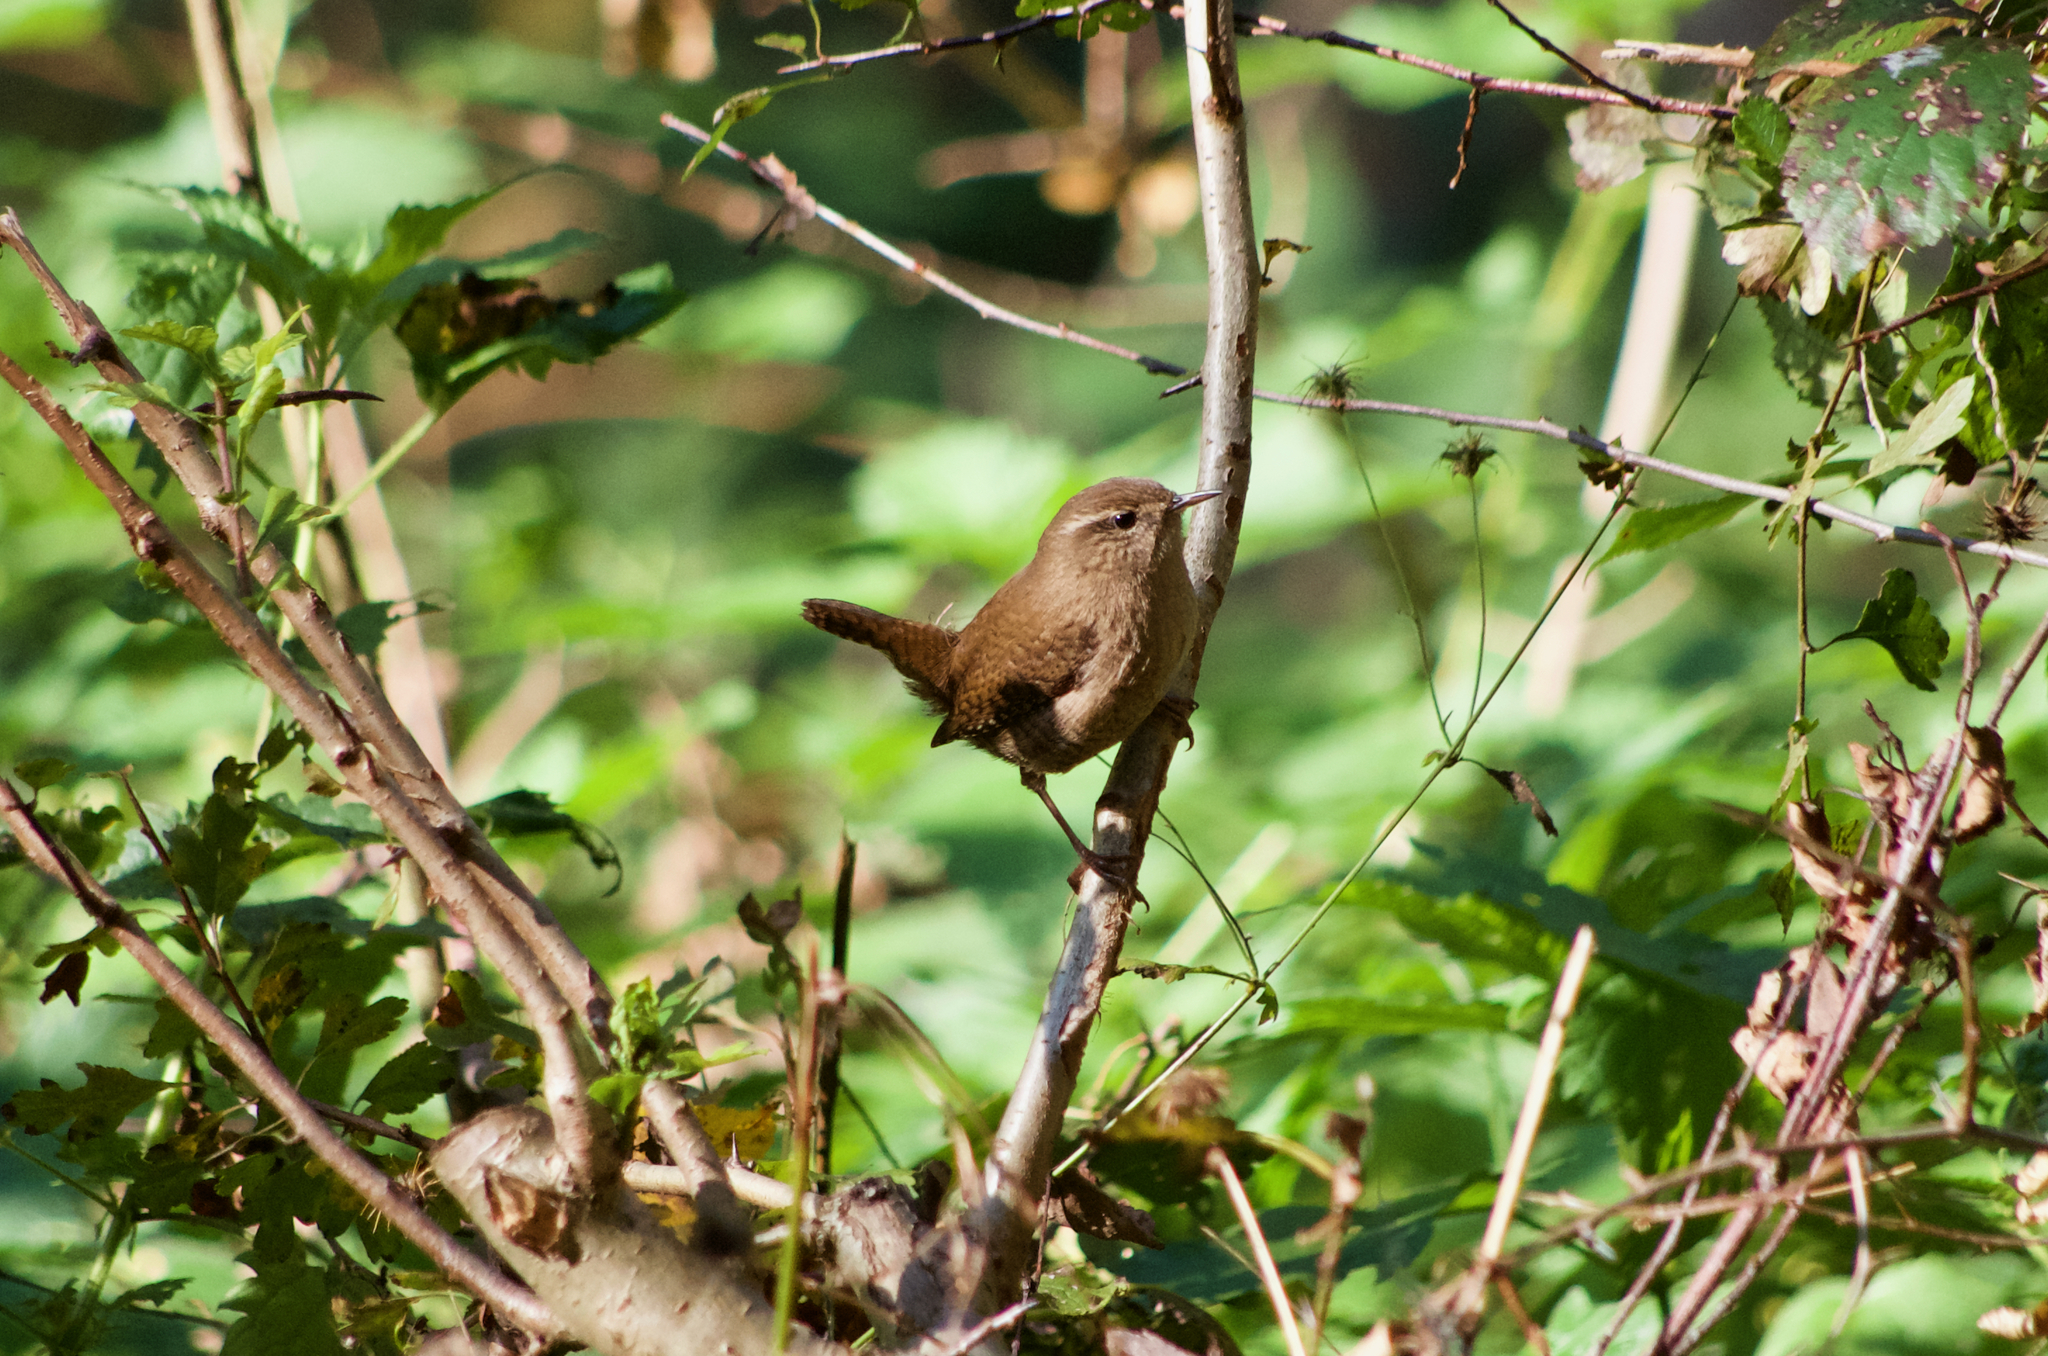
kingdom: Animalia
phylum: Chordata
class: Aves
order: Passeriformes
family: Troglodytidae
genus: Troglodytes
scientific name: Troglodytes troglodytes
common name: Eurasian wren
